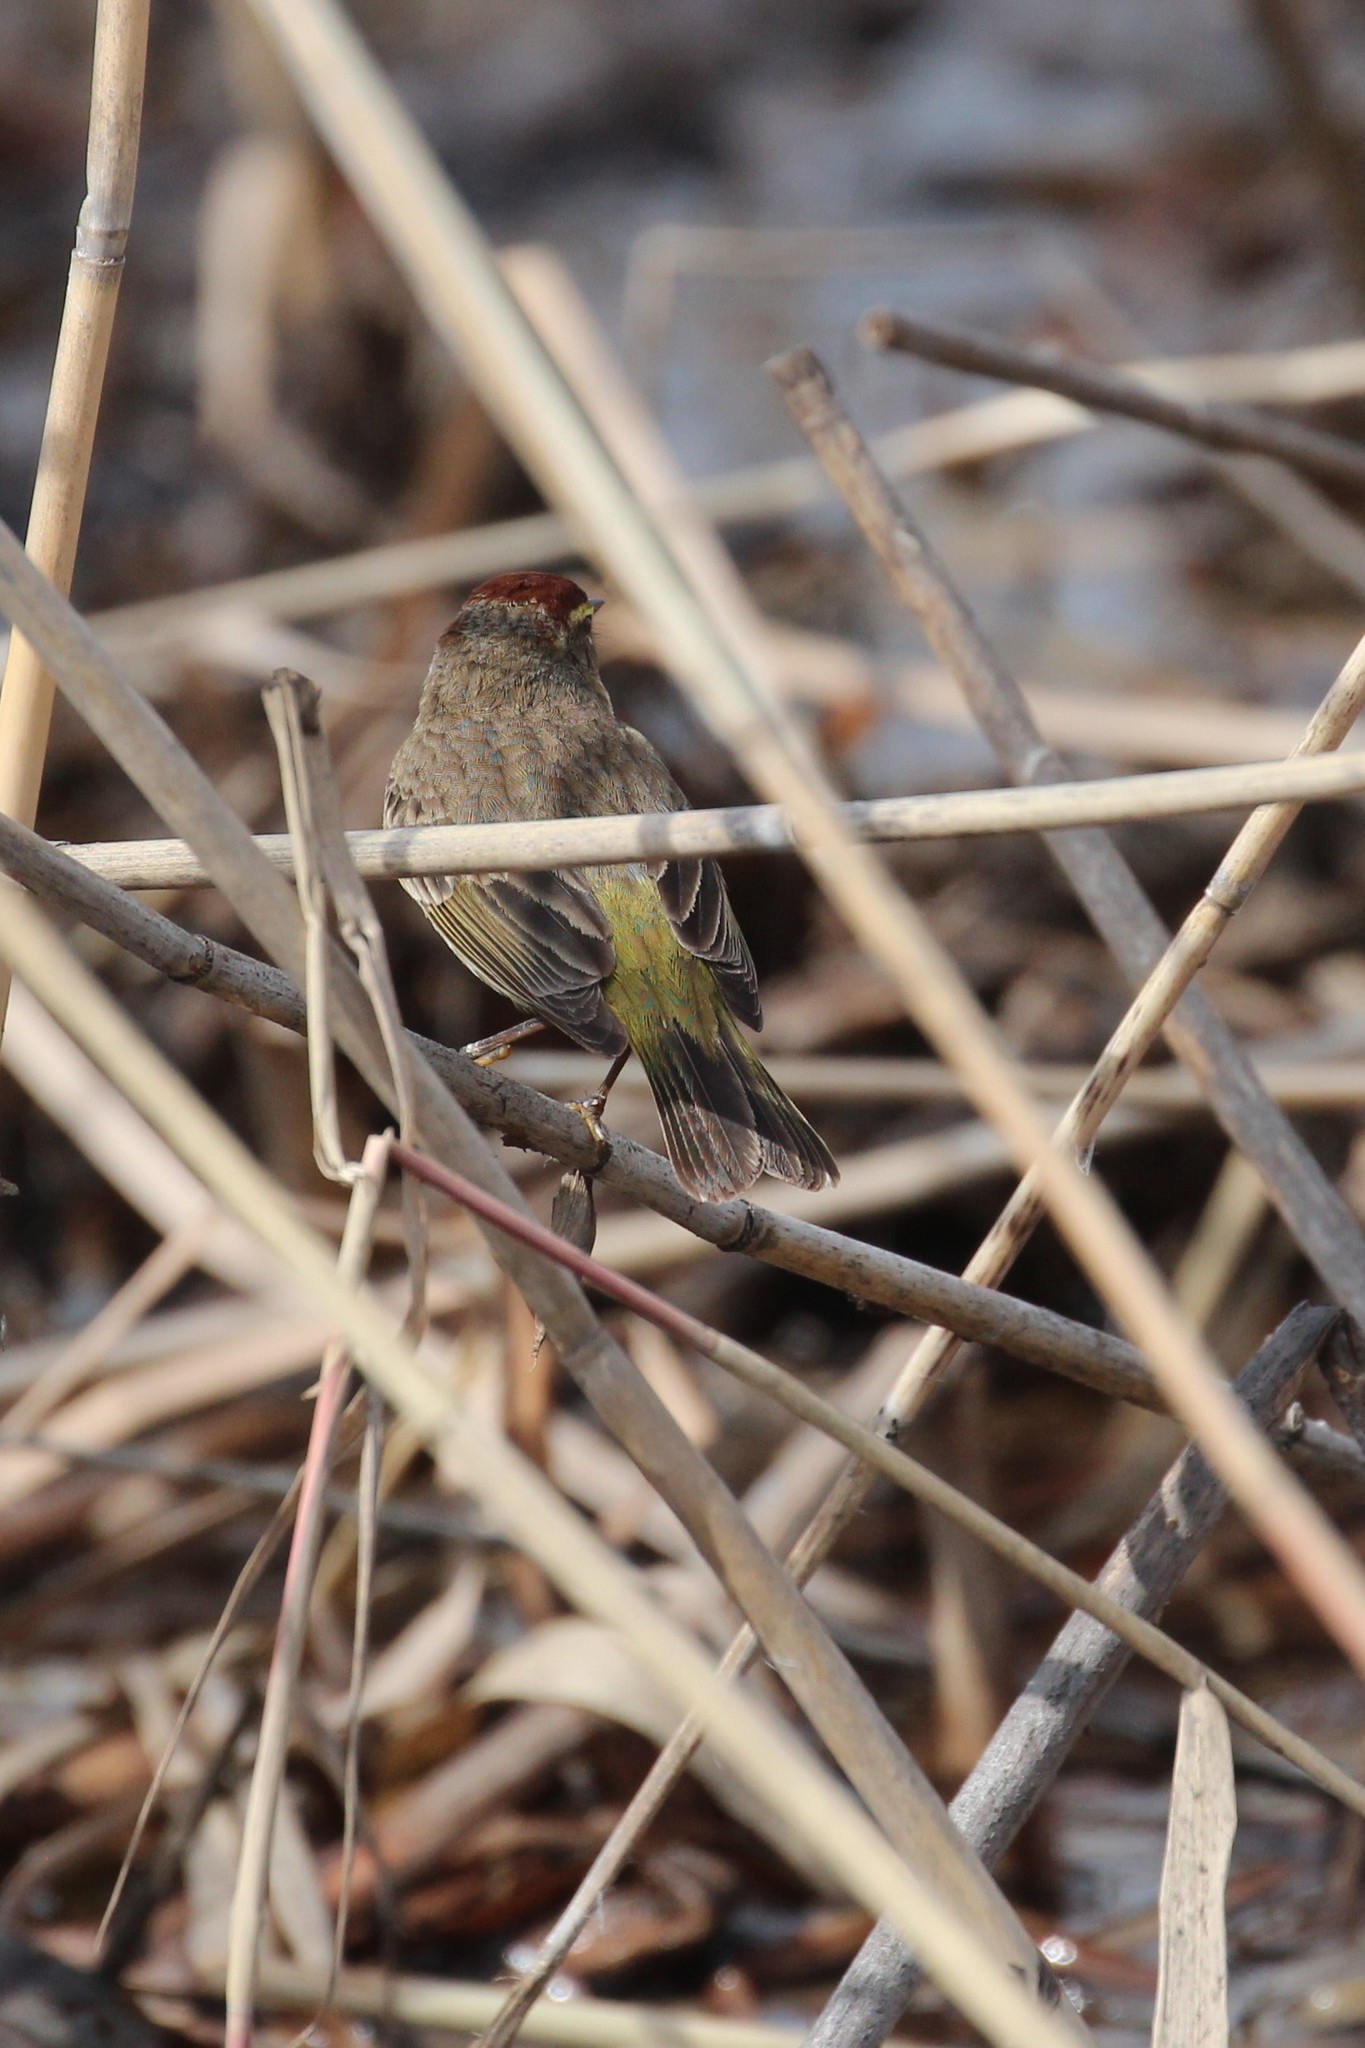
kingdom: Animalia
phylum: Chordata
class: Aves
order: Passeriformes
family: Parulidae
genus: Setophaga
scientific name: Setophaga palmarum
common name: Palm warbler
